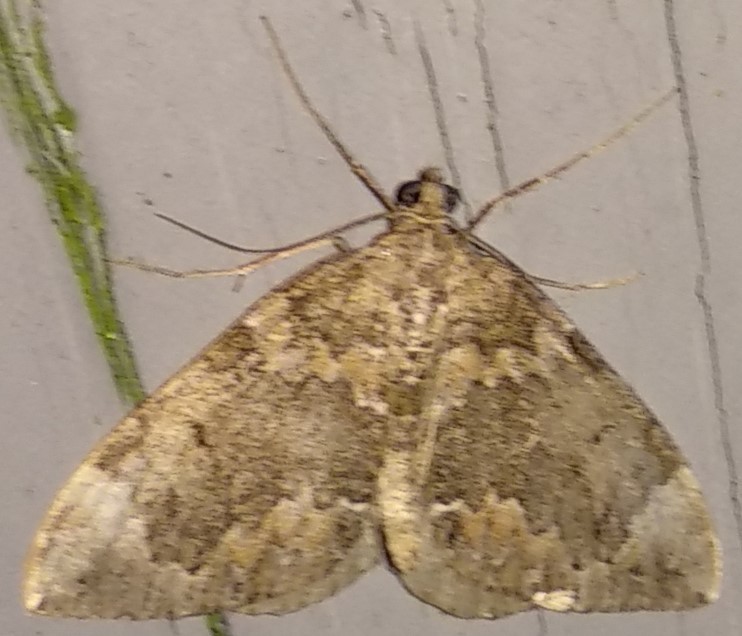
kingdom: Animalia
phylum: Arthropoda
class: Insecta
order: Lepidoptera
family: Geometridae
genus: Dysstroma
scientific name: Dysstroma citrata
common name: Dark marbled carpet
